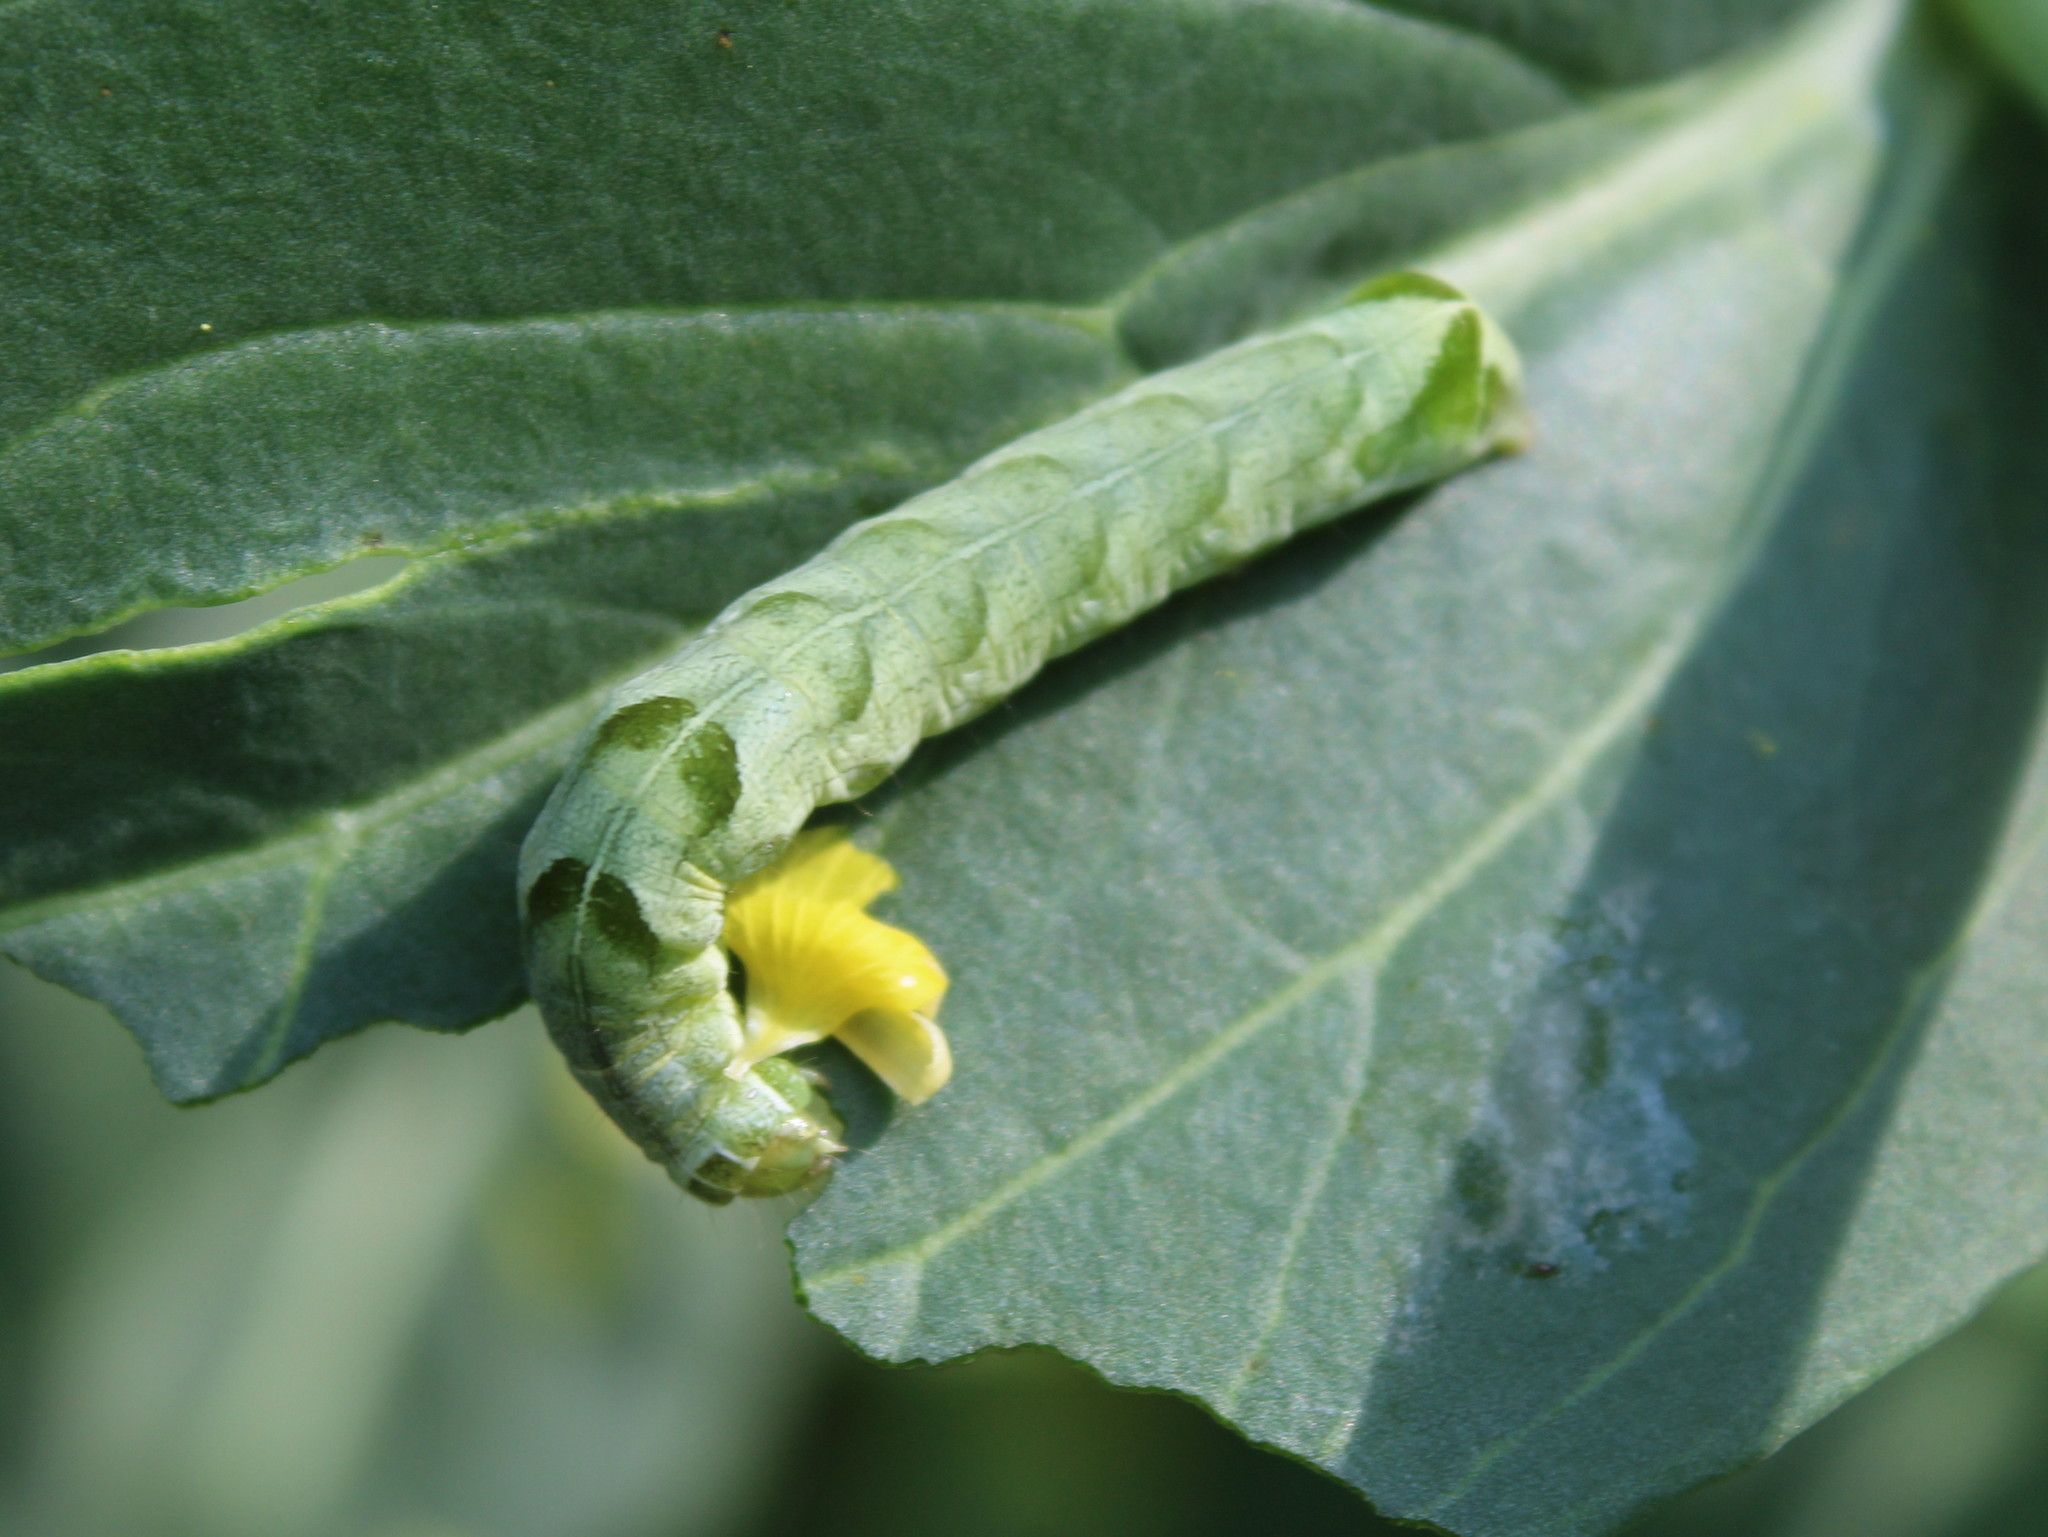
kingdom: Animalia
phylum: Arthropoda
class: Insecta
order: Lepidoptera
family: Noctuidae
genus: Melanchra
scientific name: Melanchra adjuncta
